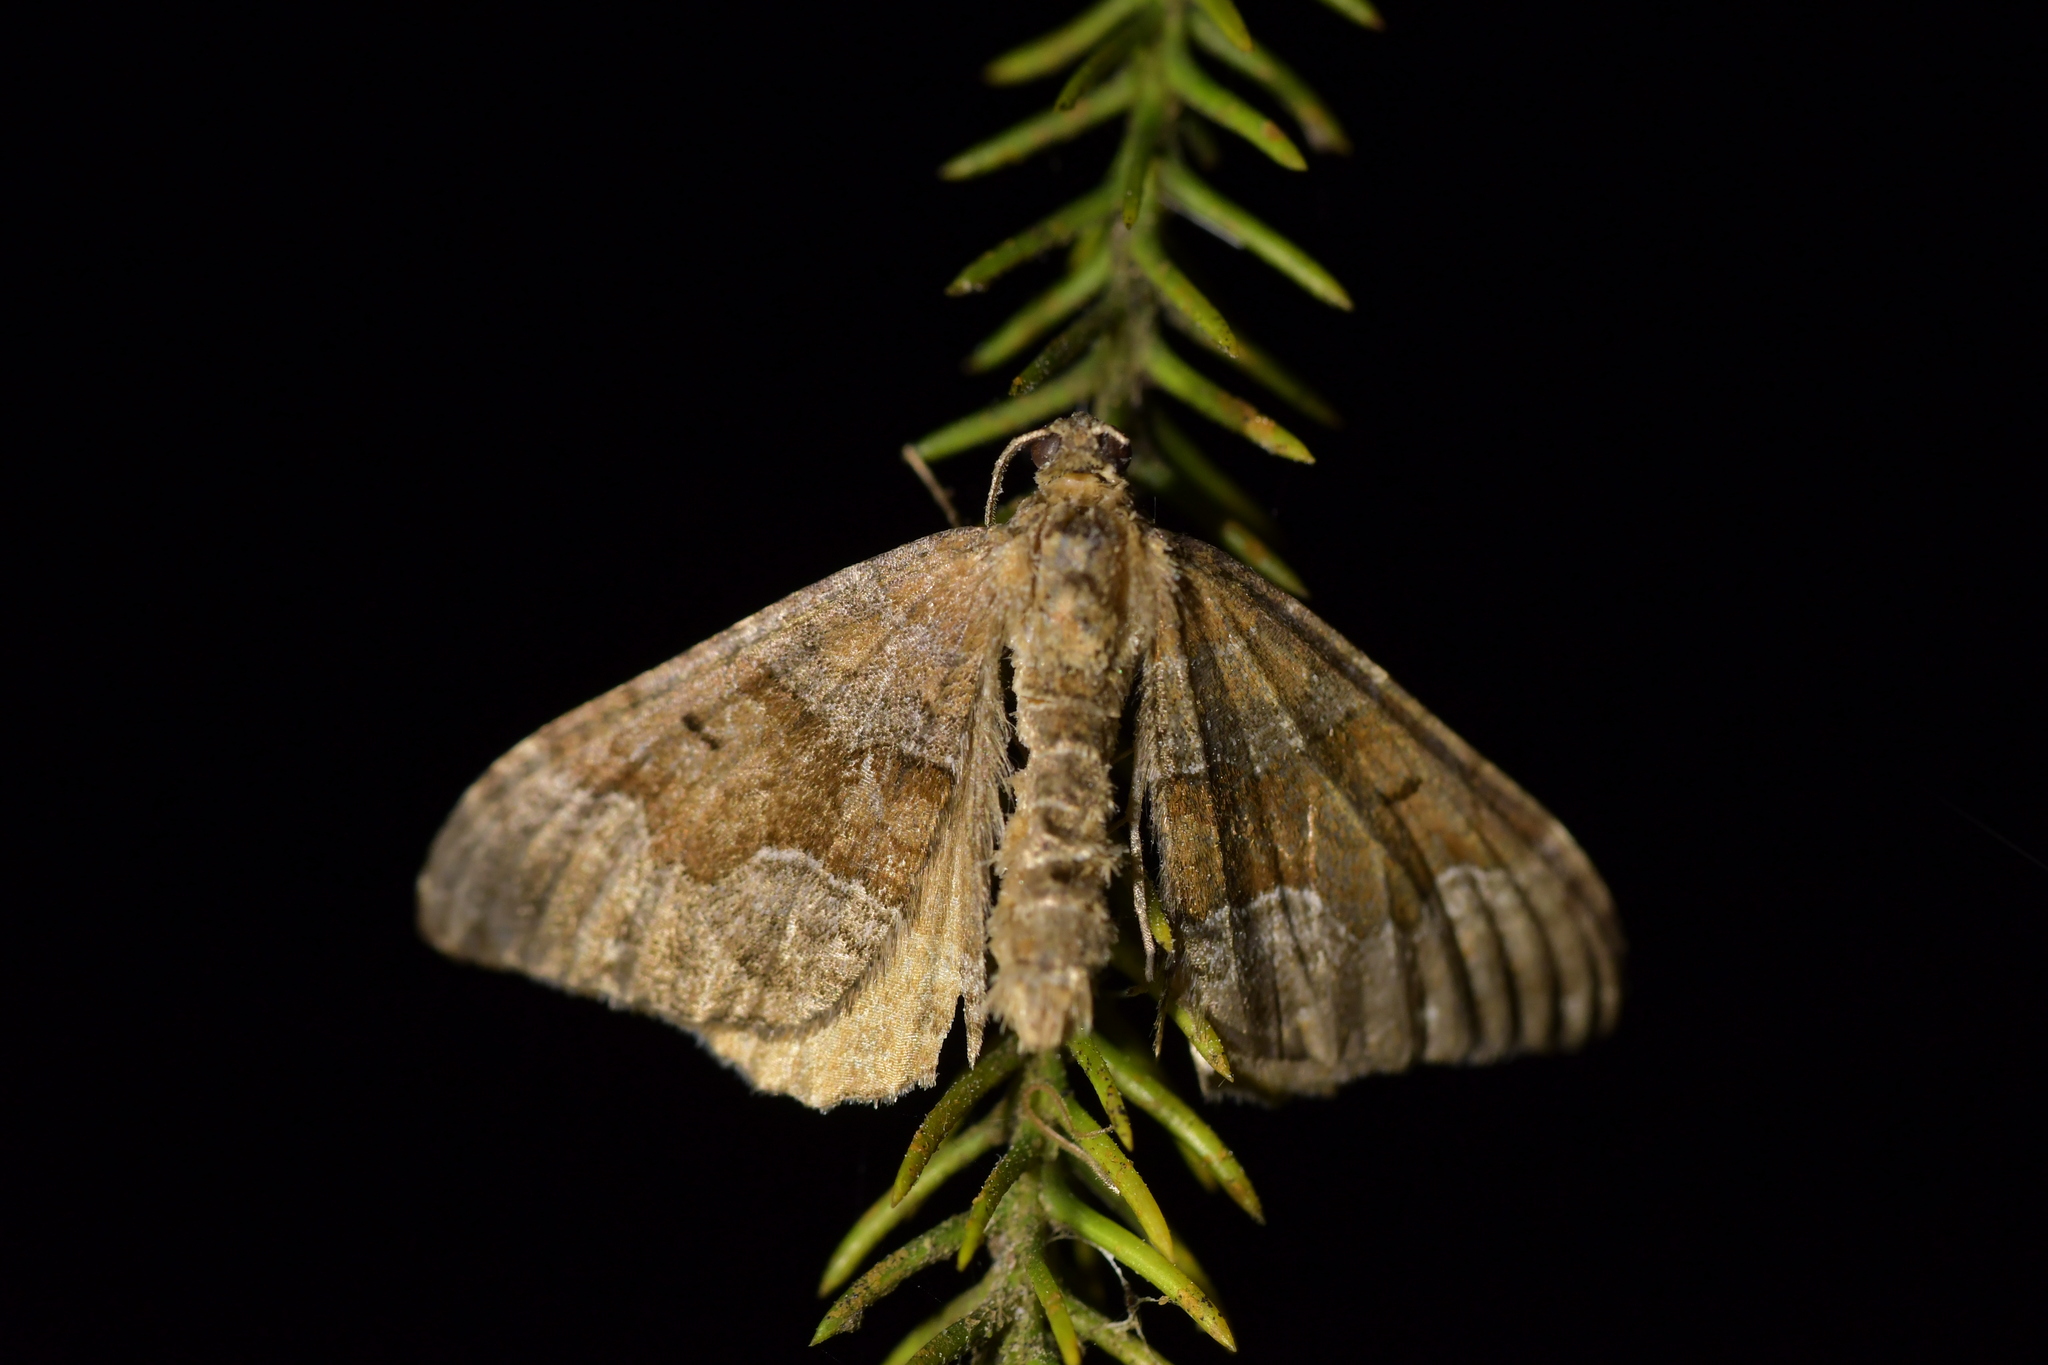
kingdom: Animalia
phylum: Arthropoda
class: Insecta
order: Lepidoptera
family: Geometridae
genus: Hydriomena
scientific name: Hydriomena deltoidata
